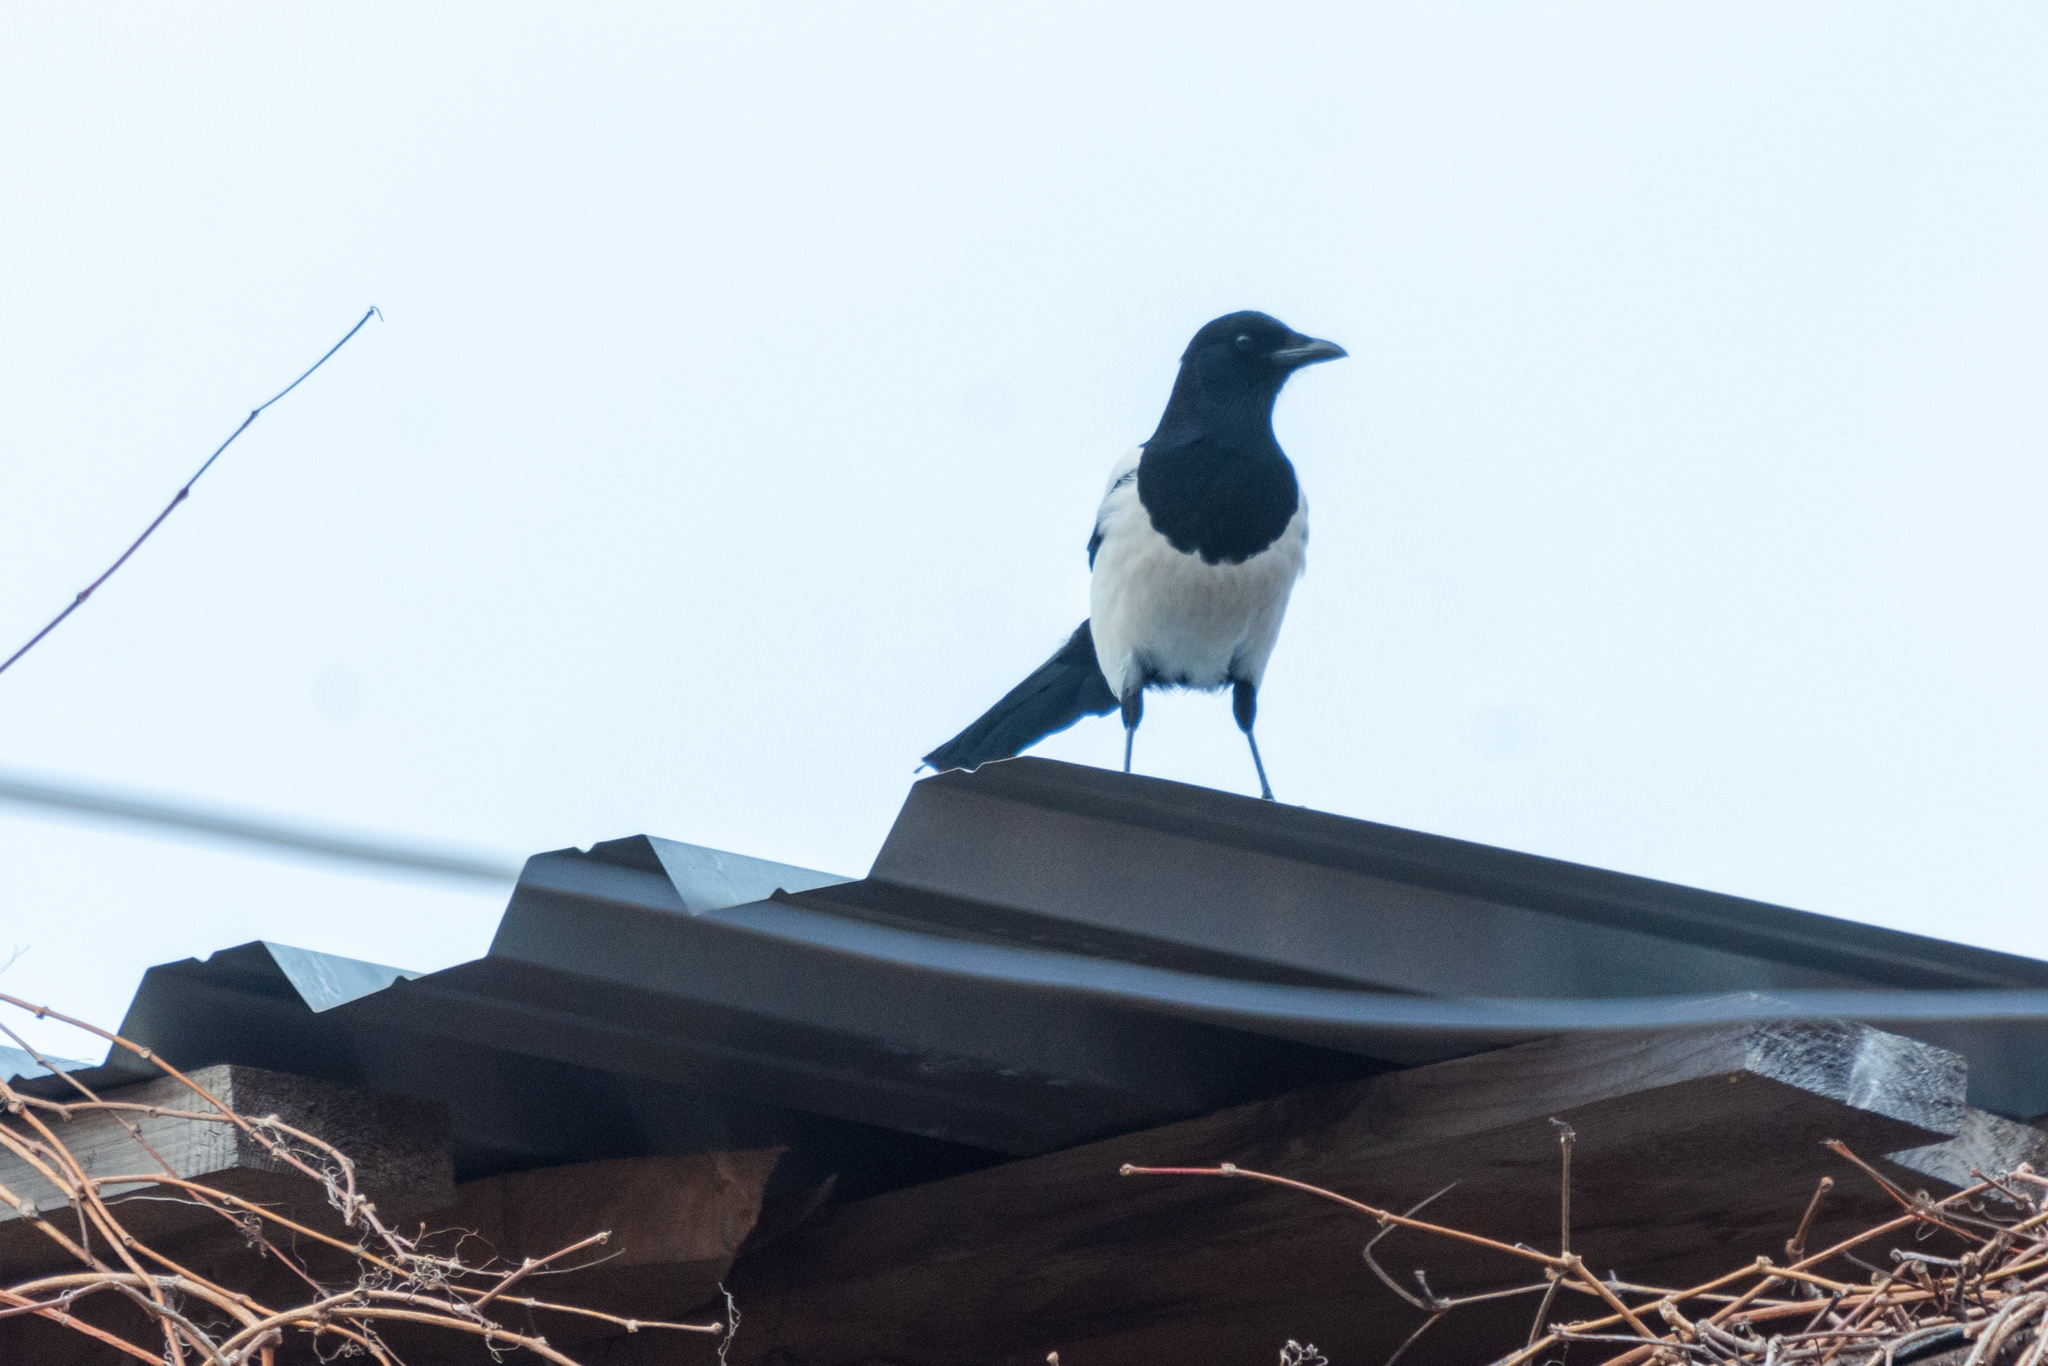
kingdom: Animalia
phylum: Chordata
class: Aves
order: Passeriformes
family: Corvidae
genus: Pica
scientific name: Pica pica
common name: Eurasian magpie
